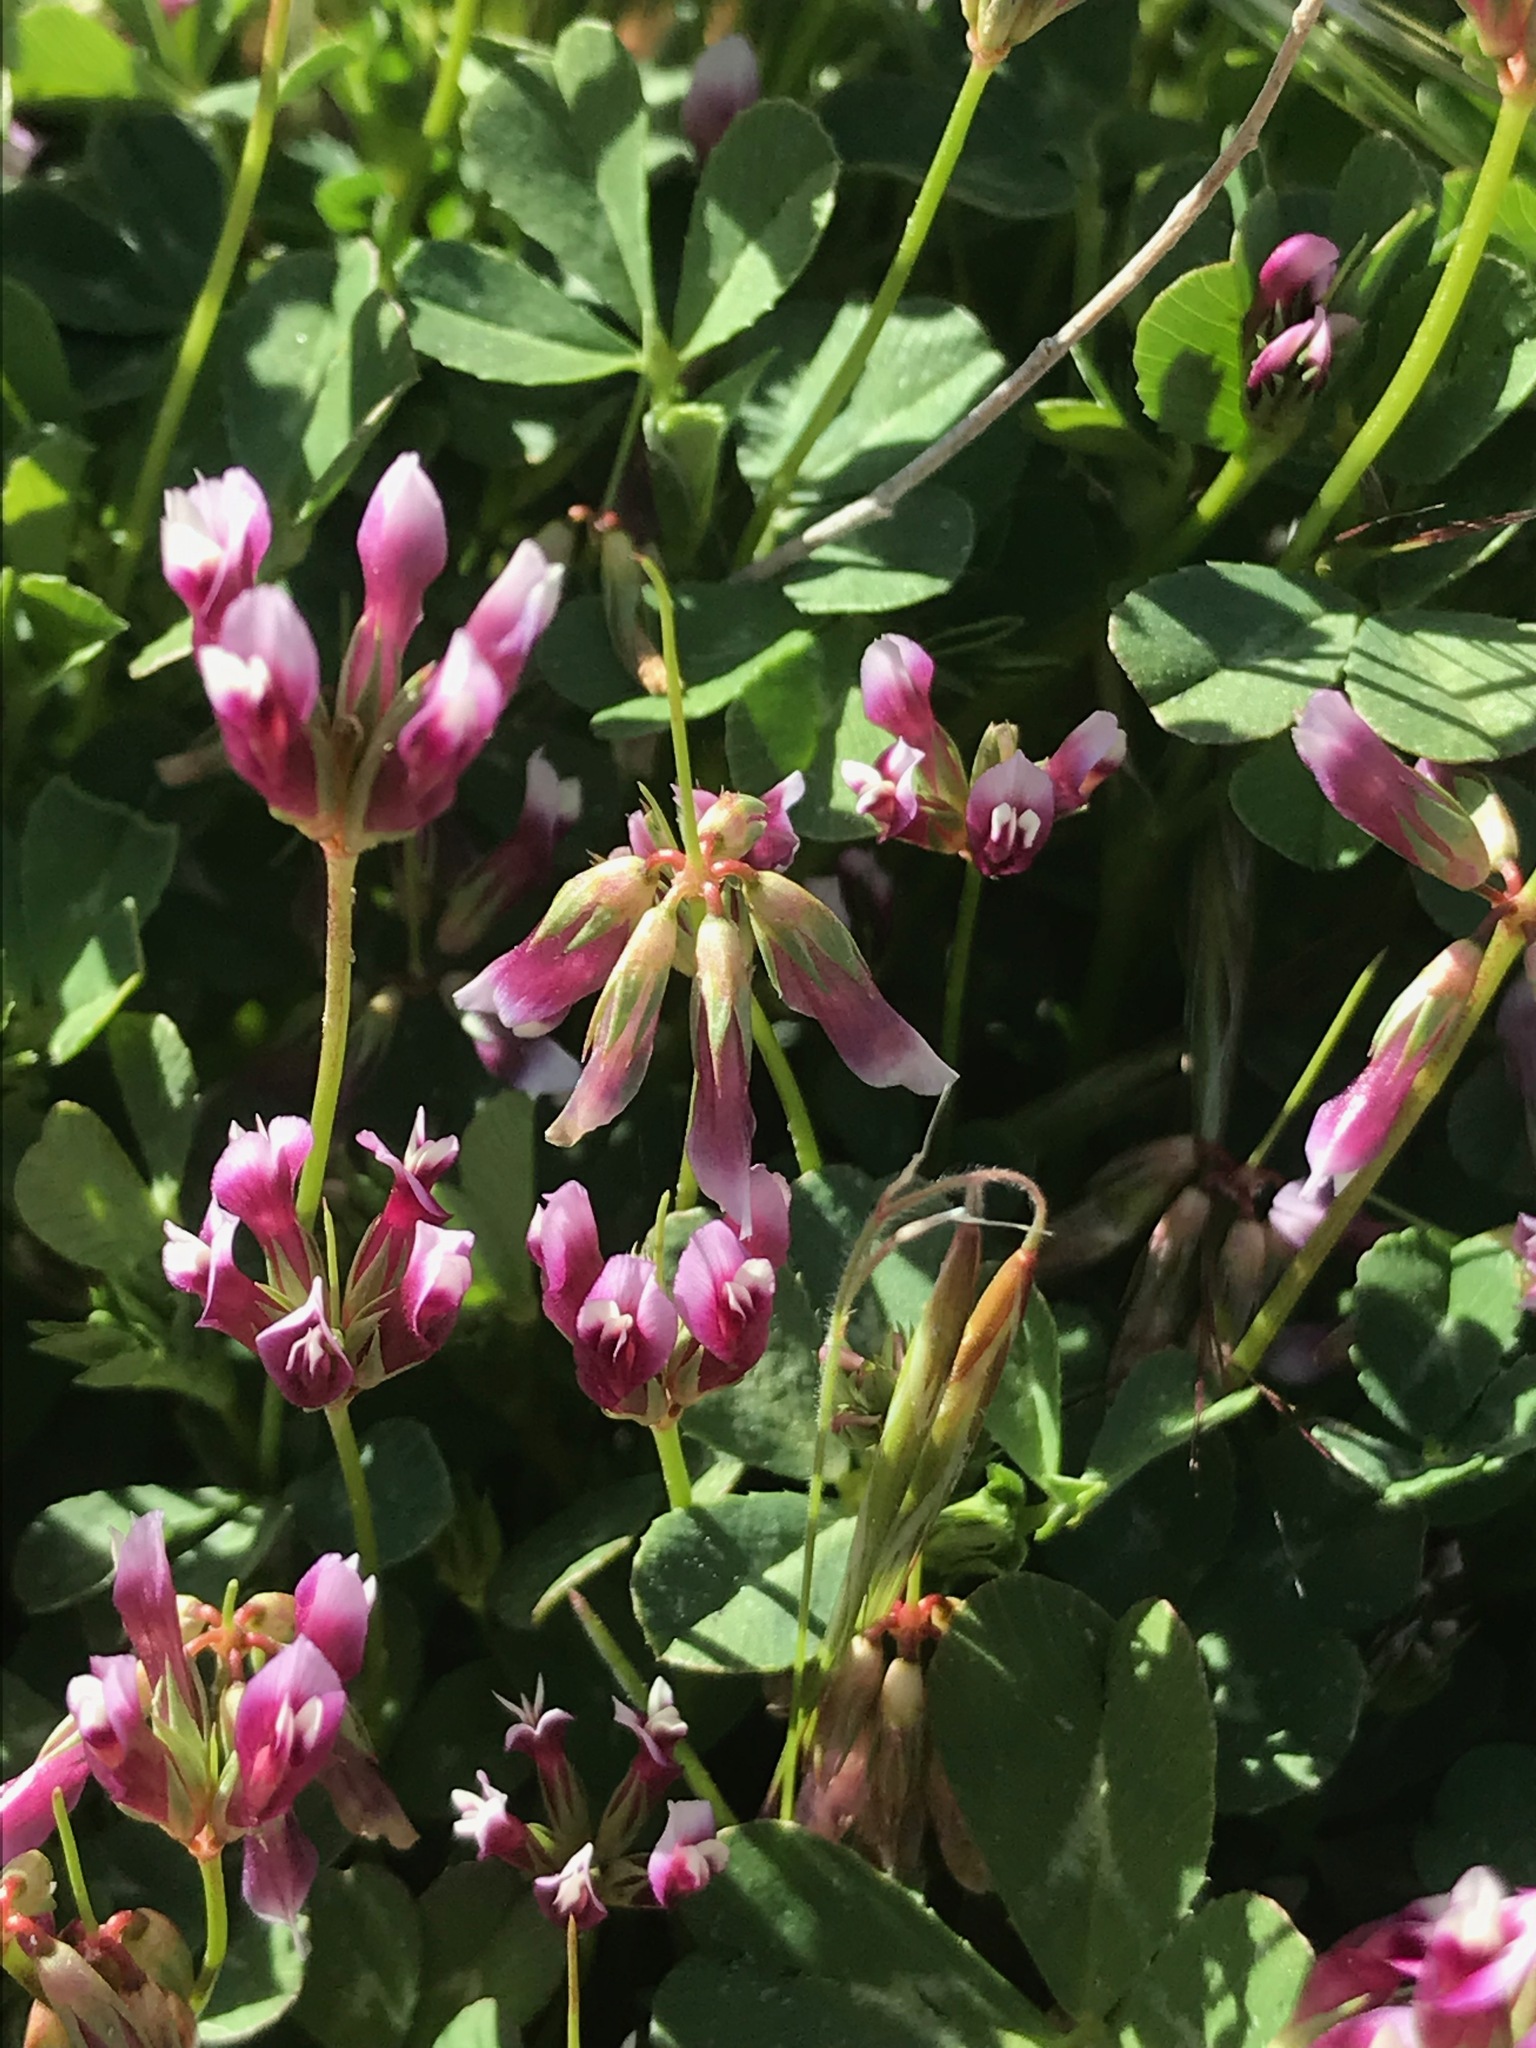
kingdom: Plantae
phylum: Tracheophyta
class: Magnoliopsida
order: Fabales
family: Fabaceae
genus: Trifolium
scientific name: Trifolium gracilentum
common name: Slender clover
